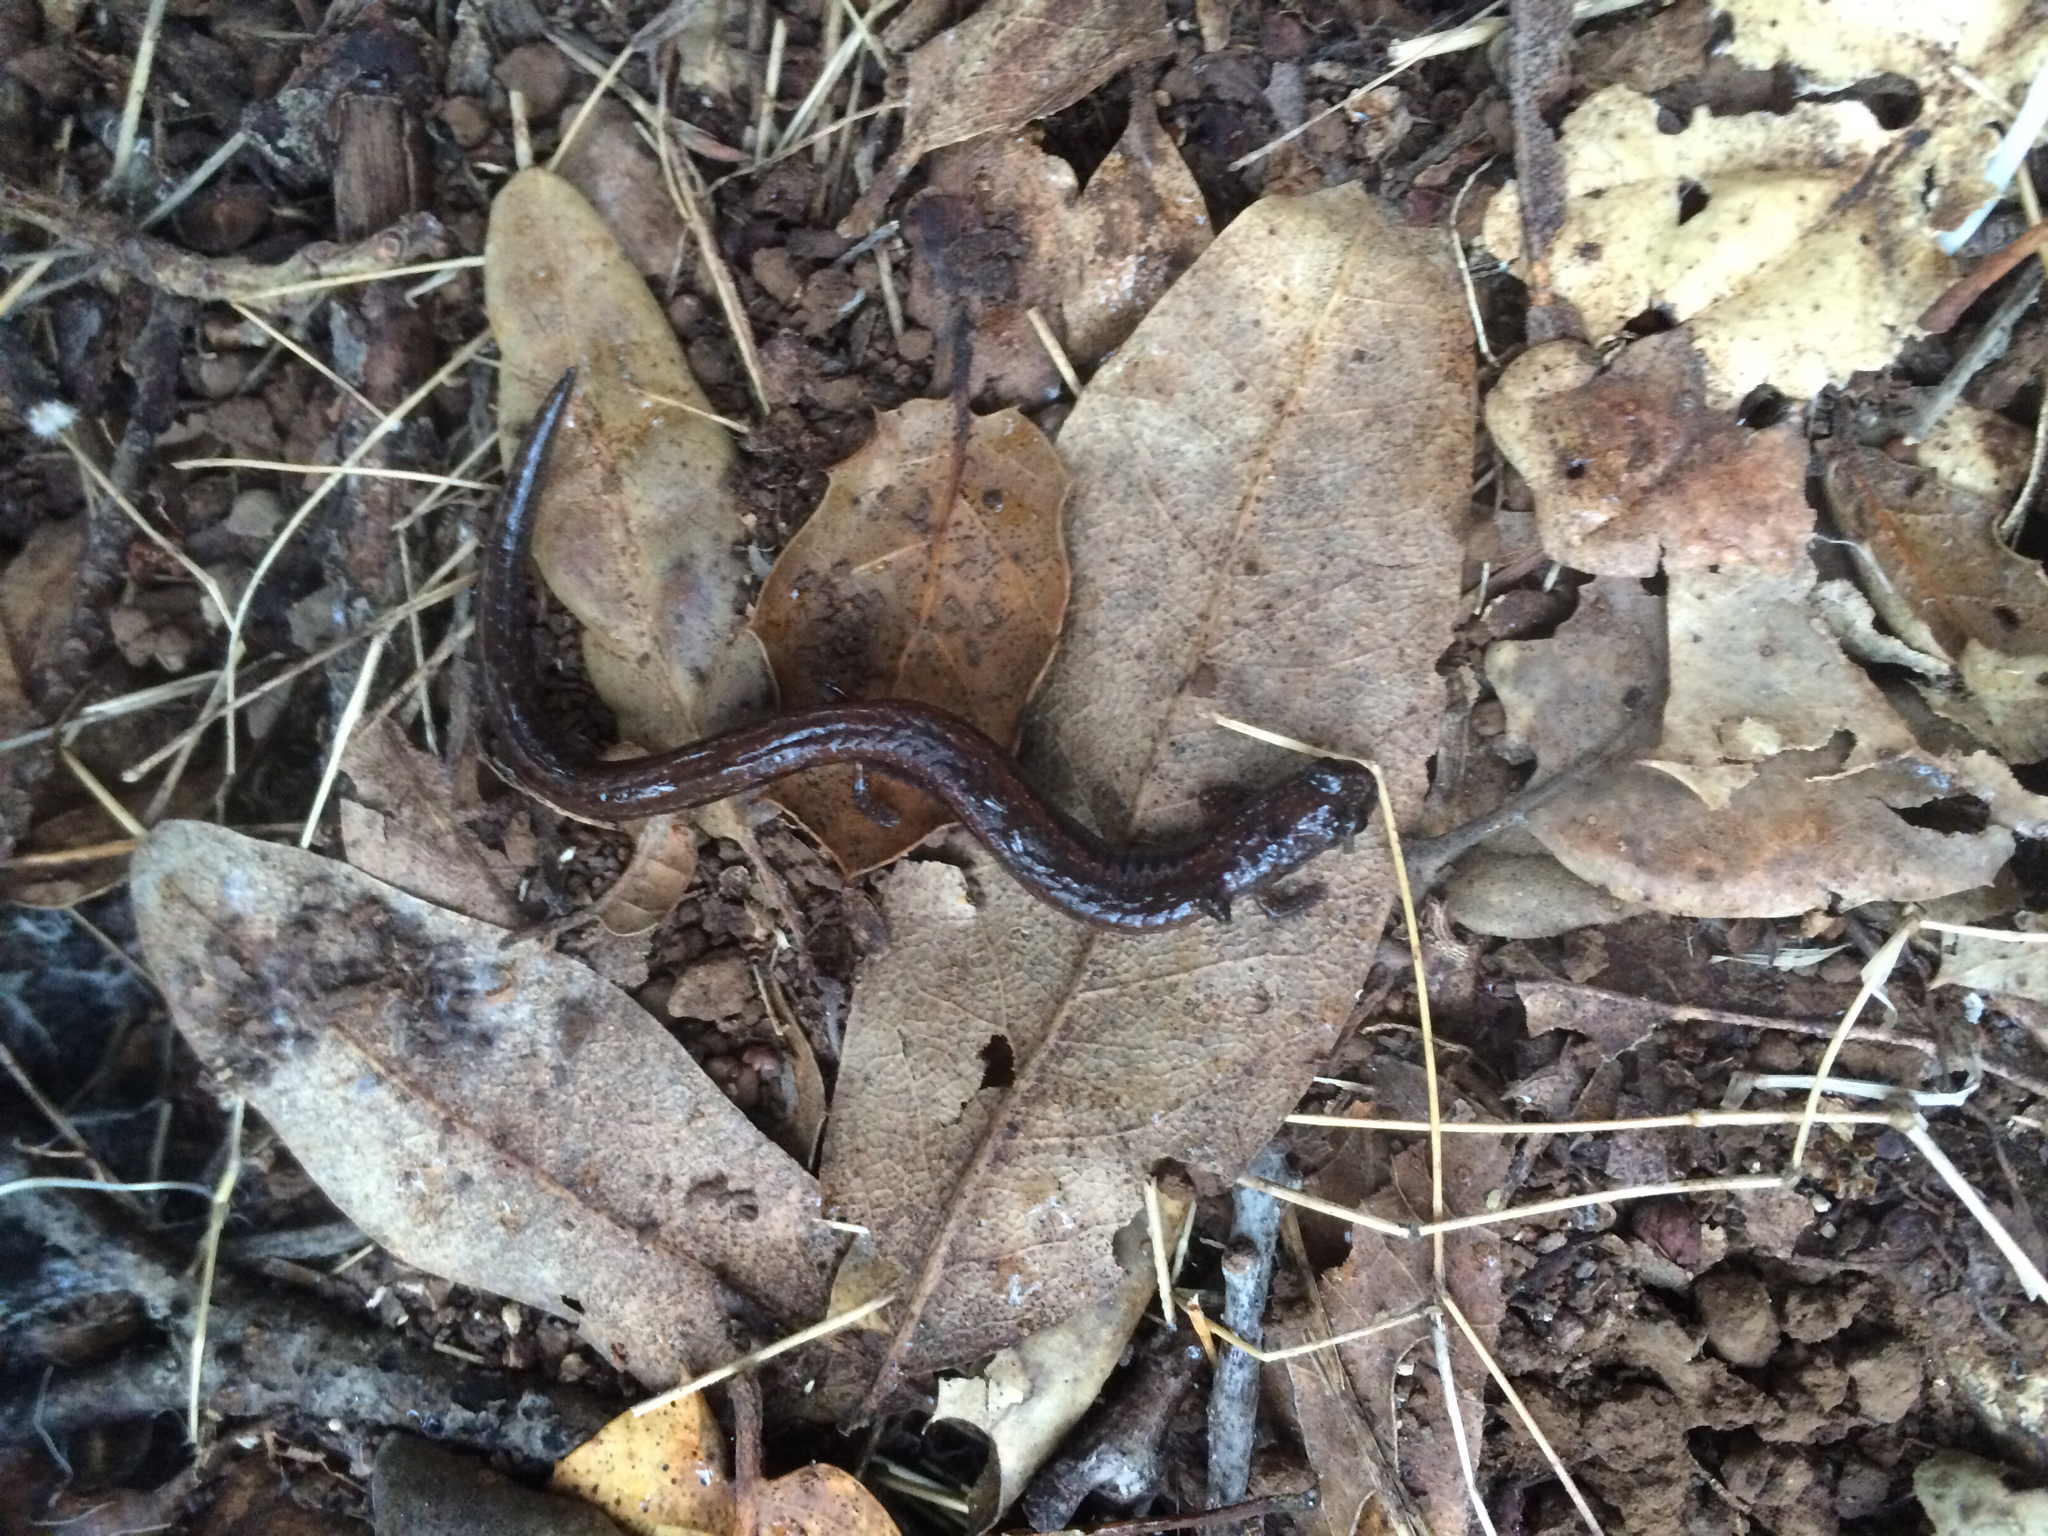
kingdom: Animalia
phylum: Chordata
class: Amphibia
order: Caudata
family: Plethodontidae
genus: Batrachoseps
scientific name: Batrachoseps attenuatus
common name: California slender salamander
